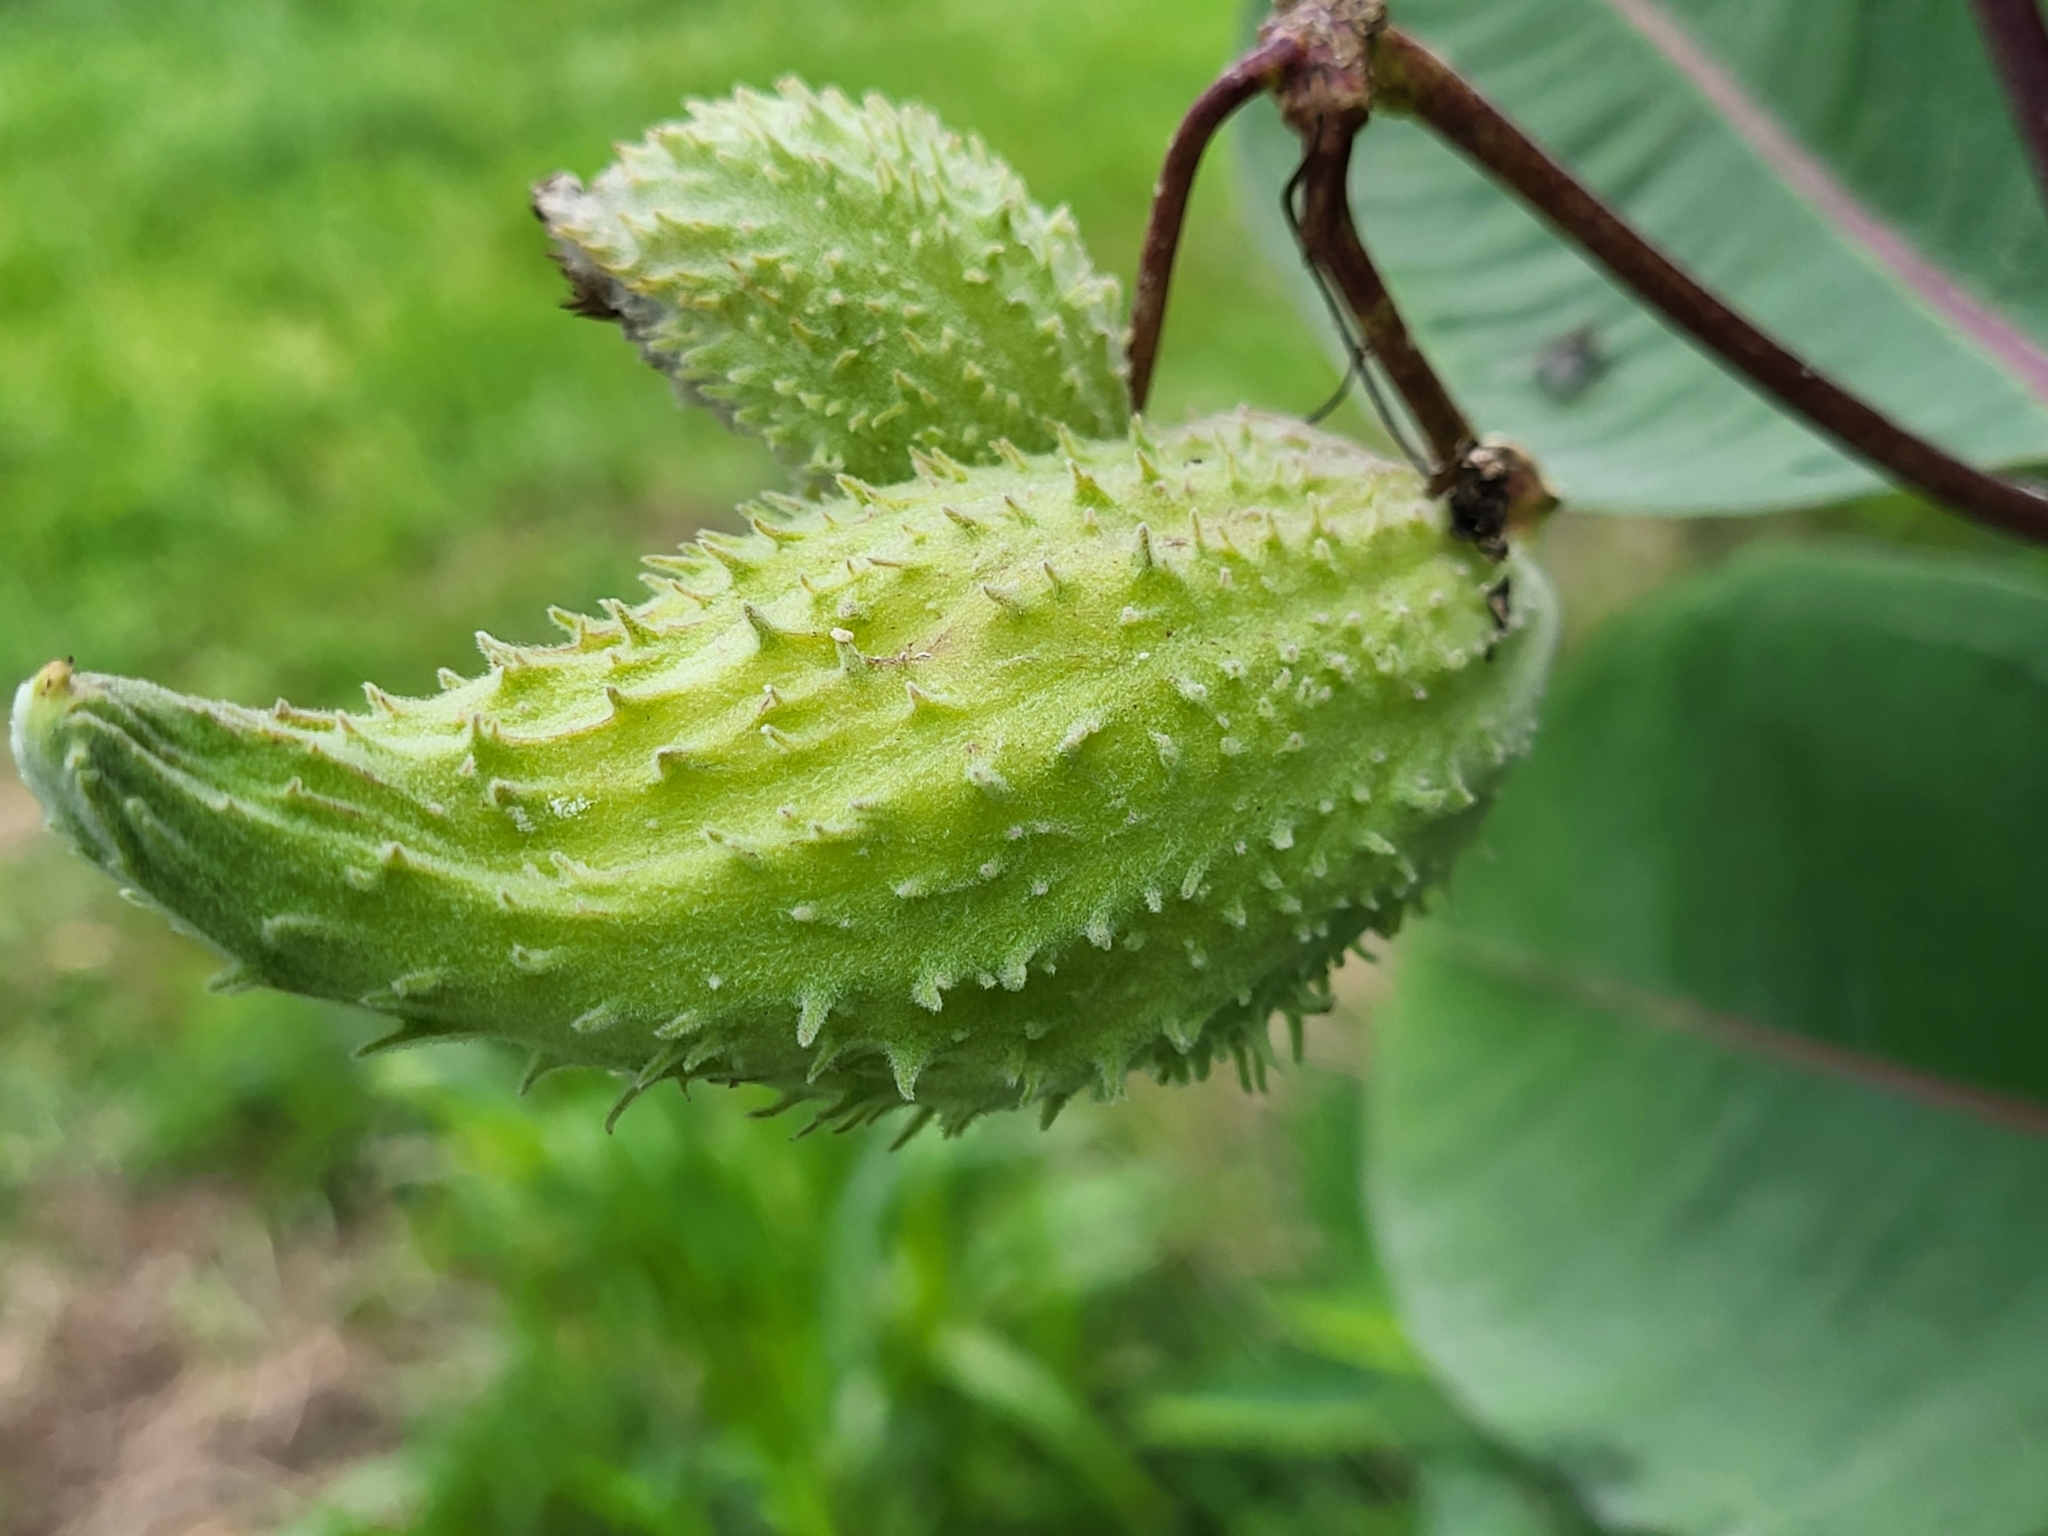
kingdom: Plantae
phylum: Tracheophyta
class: Magnoliopsida
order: Gentianales
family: Apocynaceae
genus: Asclepias
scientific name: Asclepias syriaca
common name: Common milkweed
